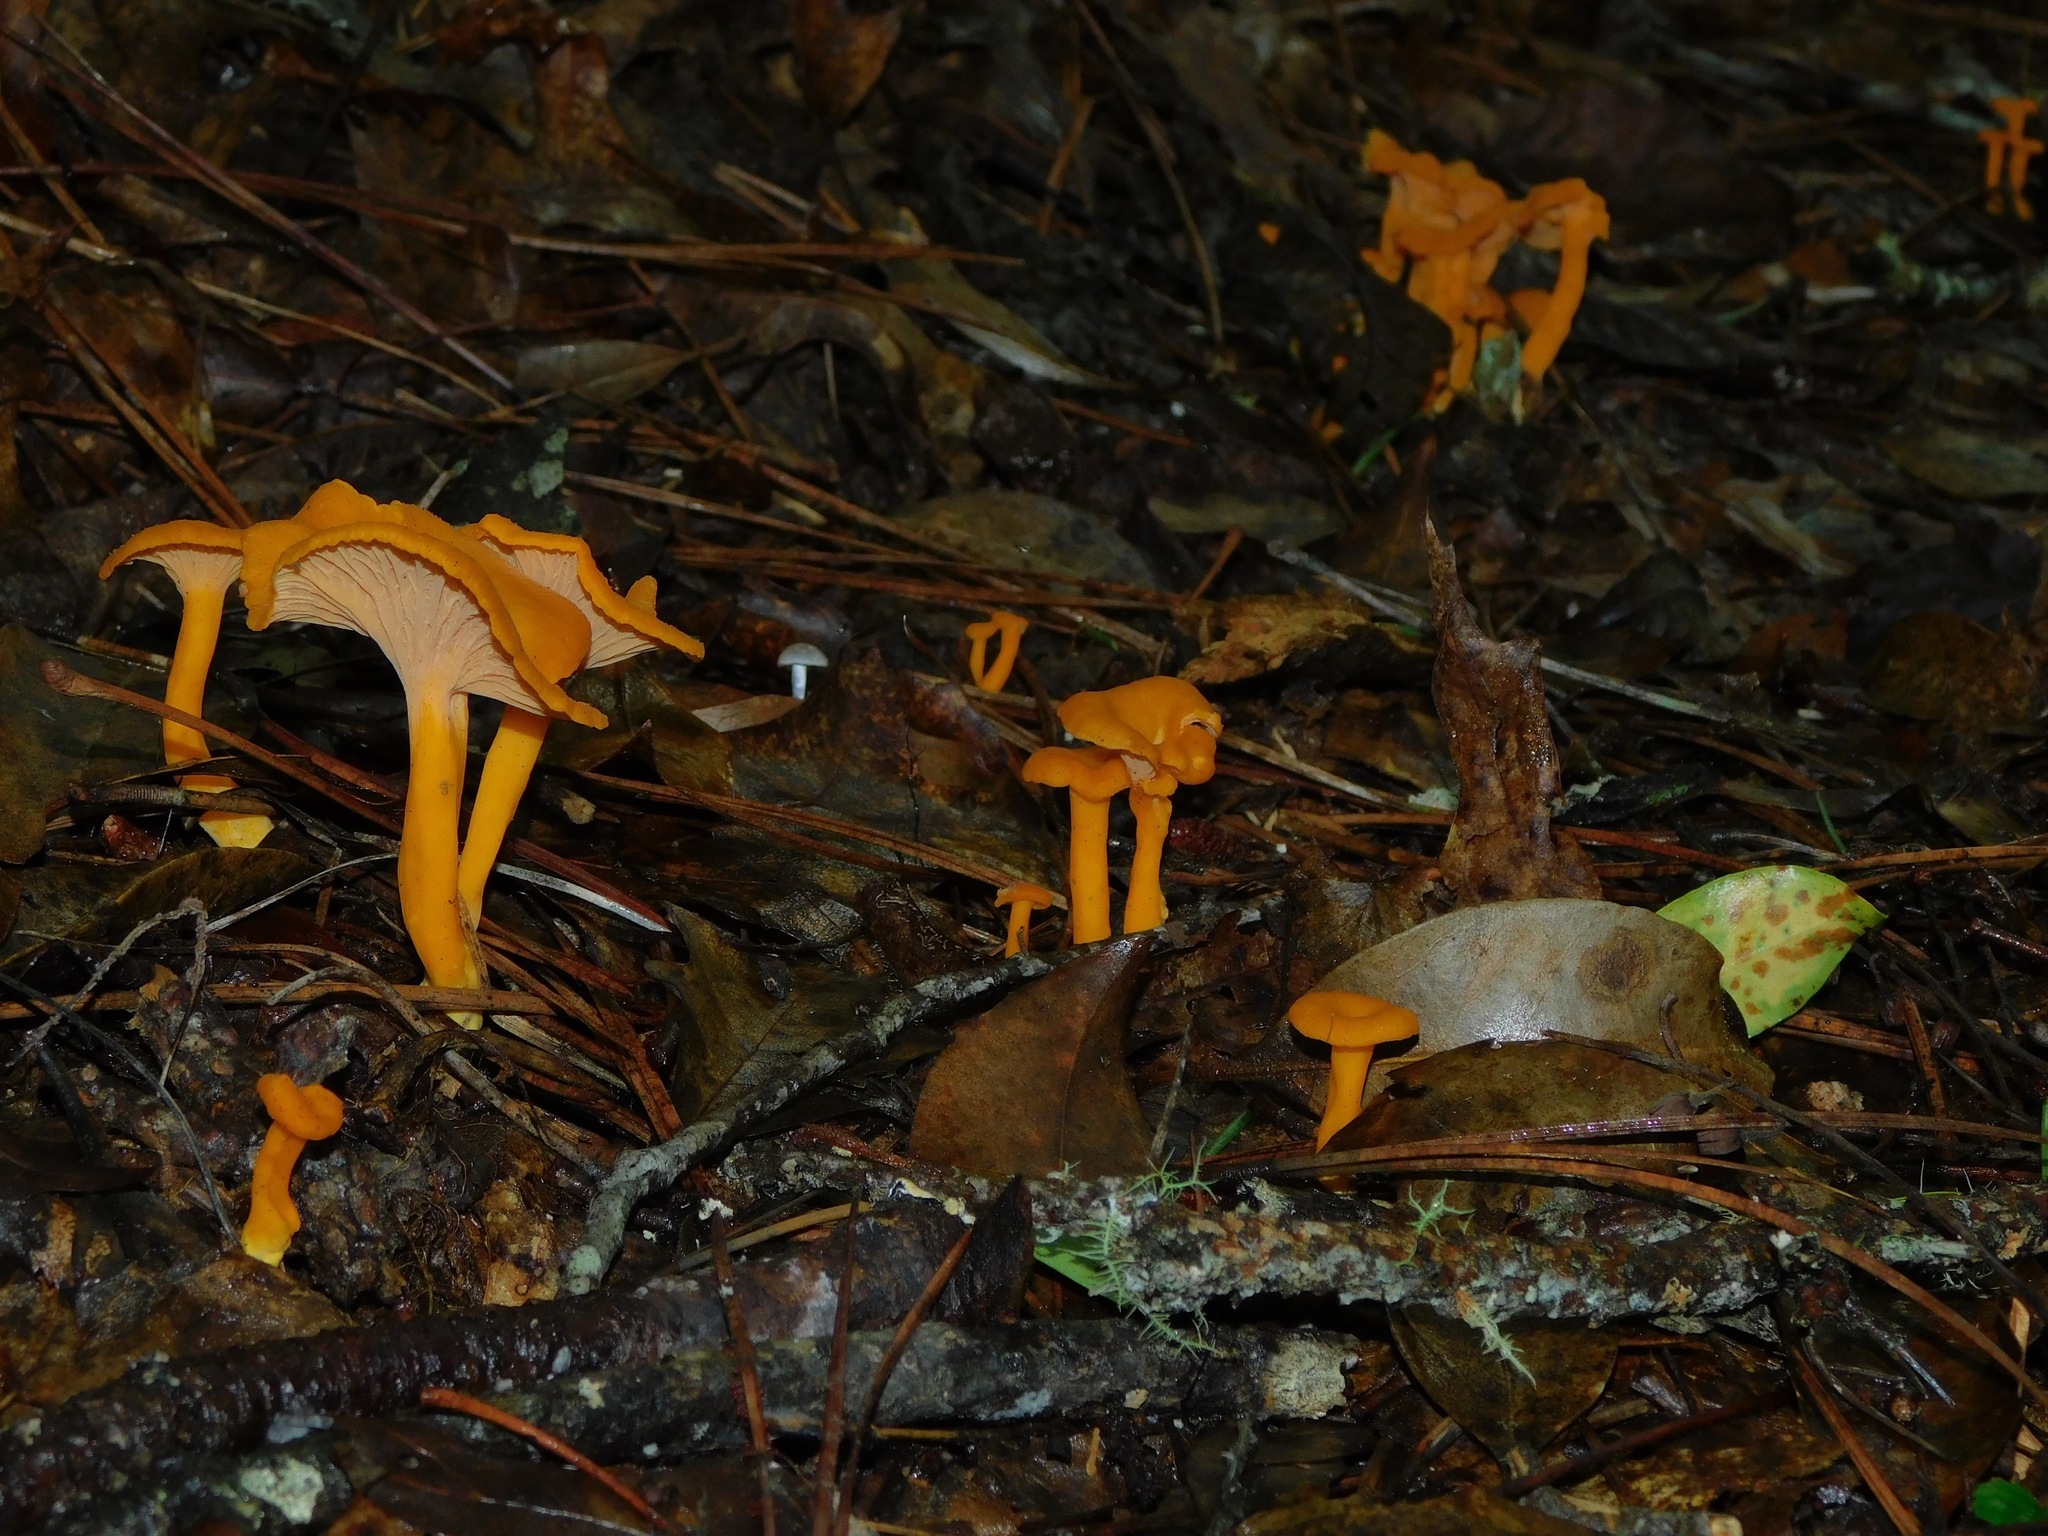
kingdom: Fungi
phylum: Basidiomycota
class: Agaricomycetes
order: Cantharellales
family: Hydnaceae
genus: Craterellus
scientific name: Craterellus ignicolor
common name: Flame chanterelle
